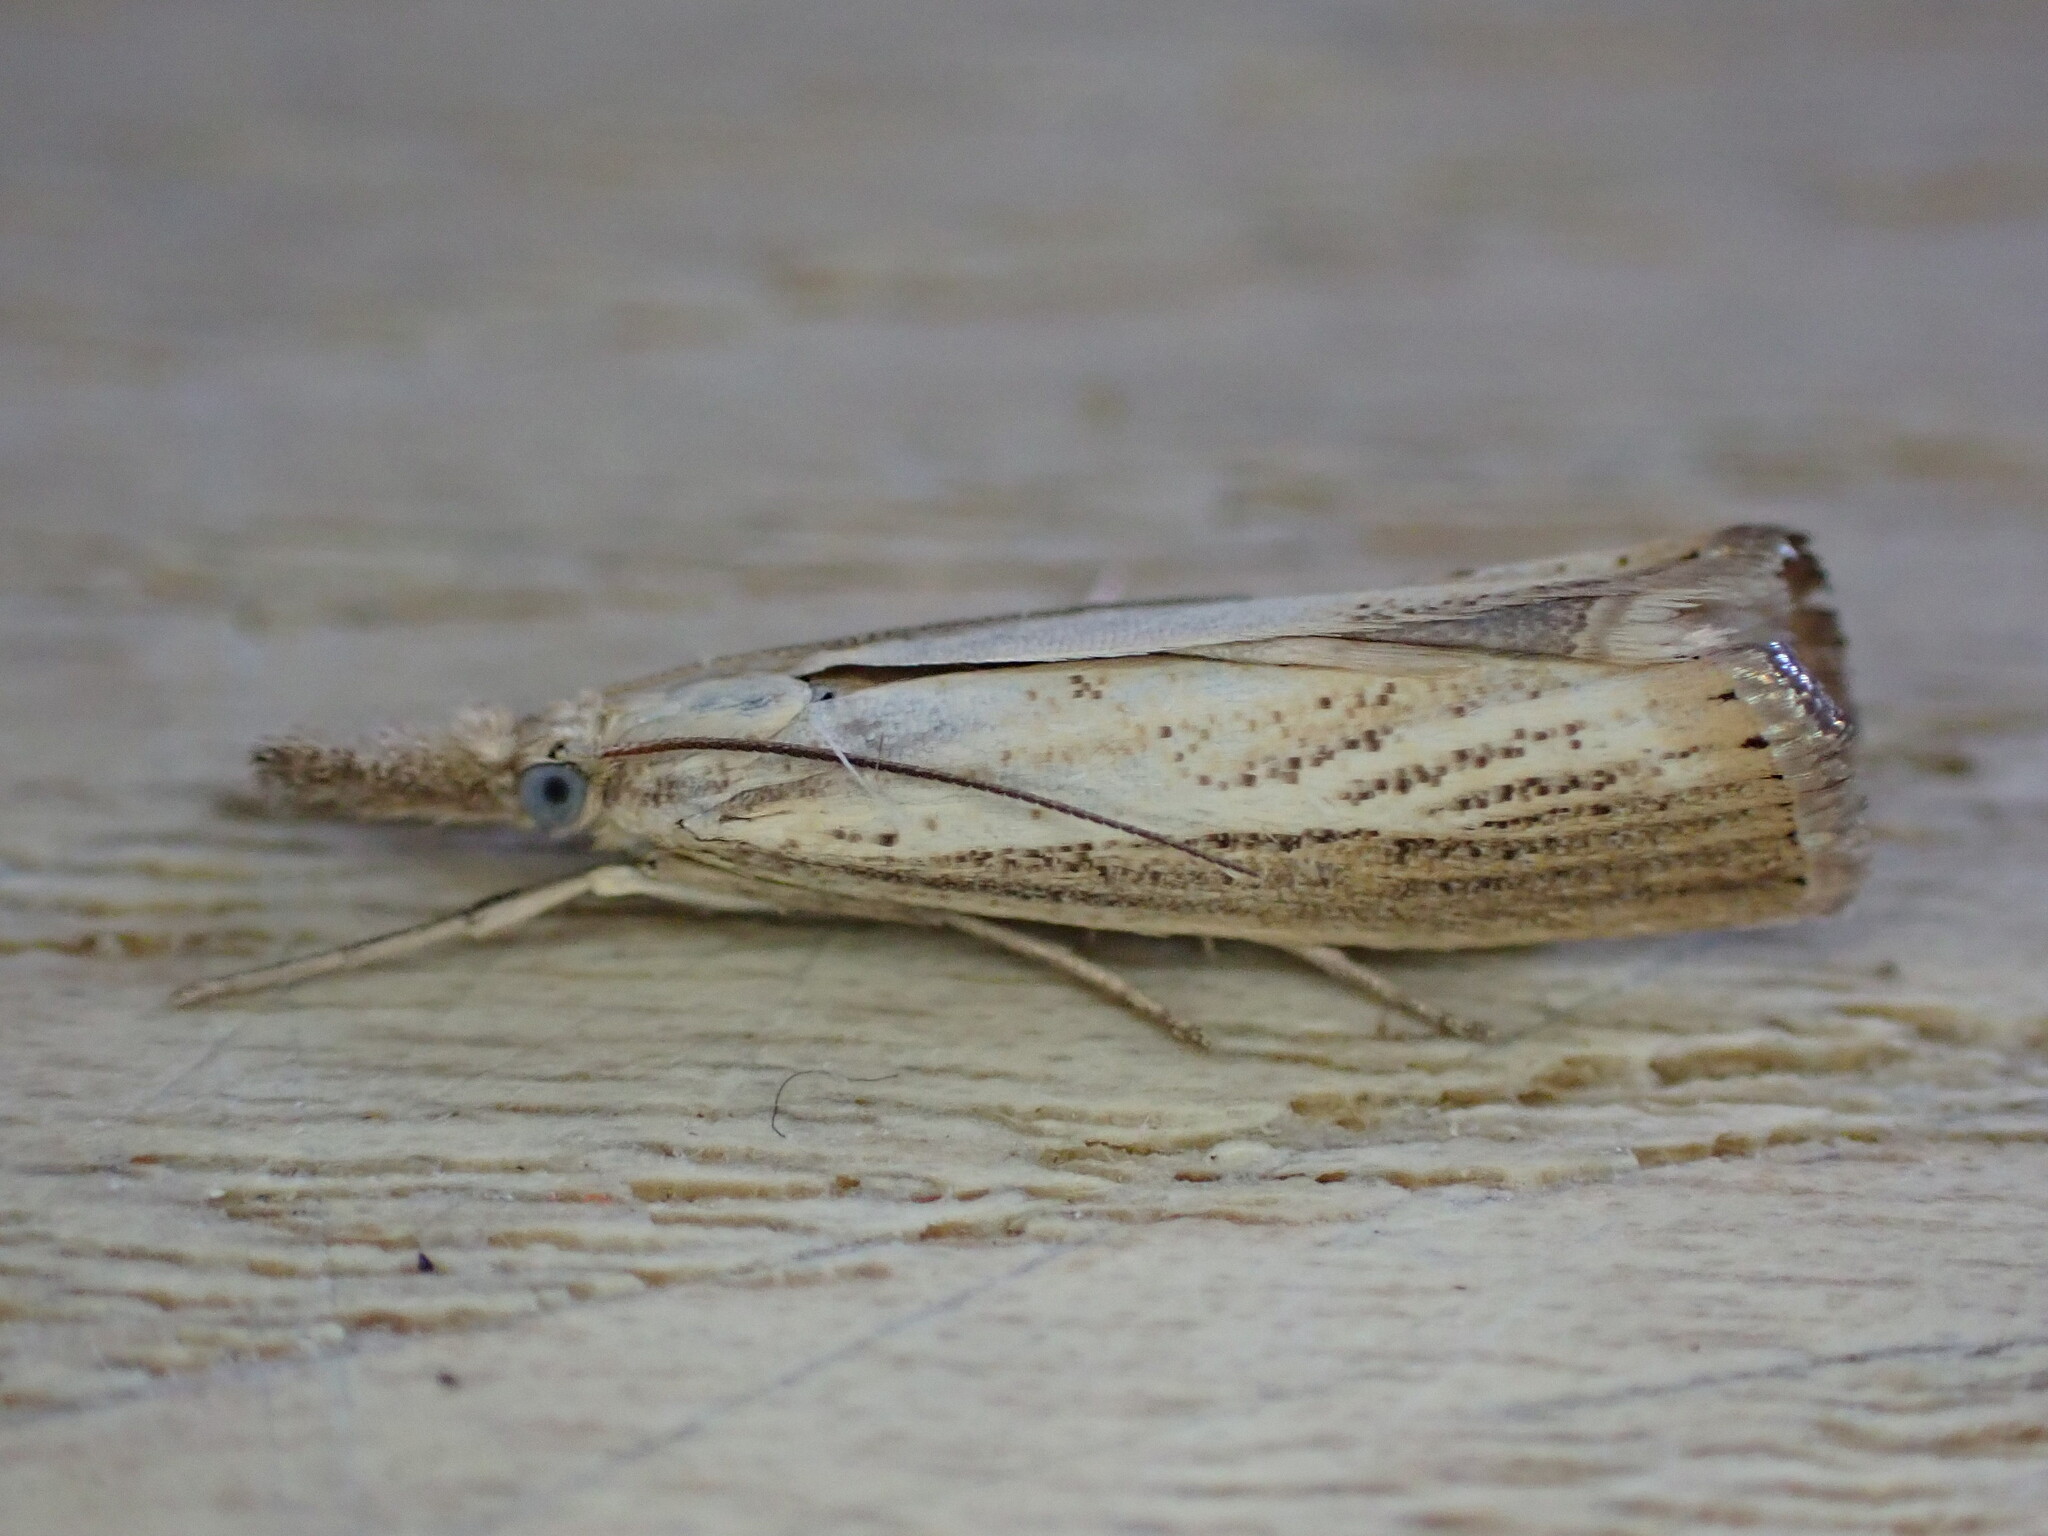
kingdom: Animalia
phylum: Arthropoda
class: Insecta
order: Lepidoptera
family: Crambidae
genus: Agriphila
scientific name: Agriphila straminella
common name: Straw grass-veneer
